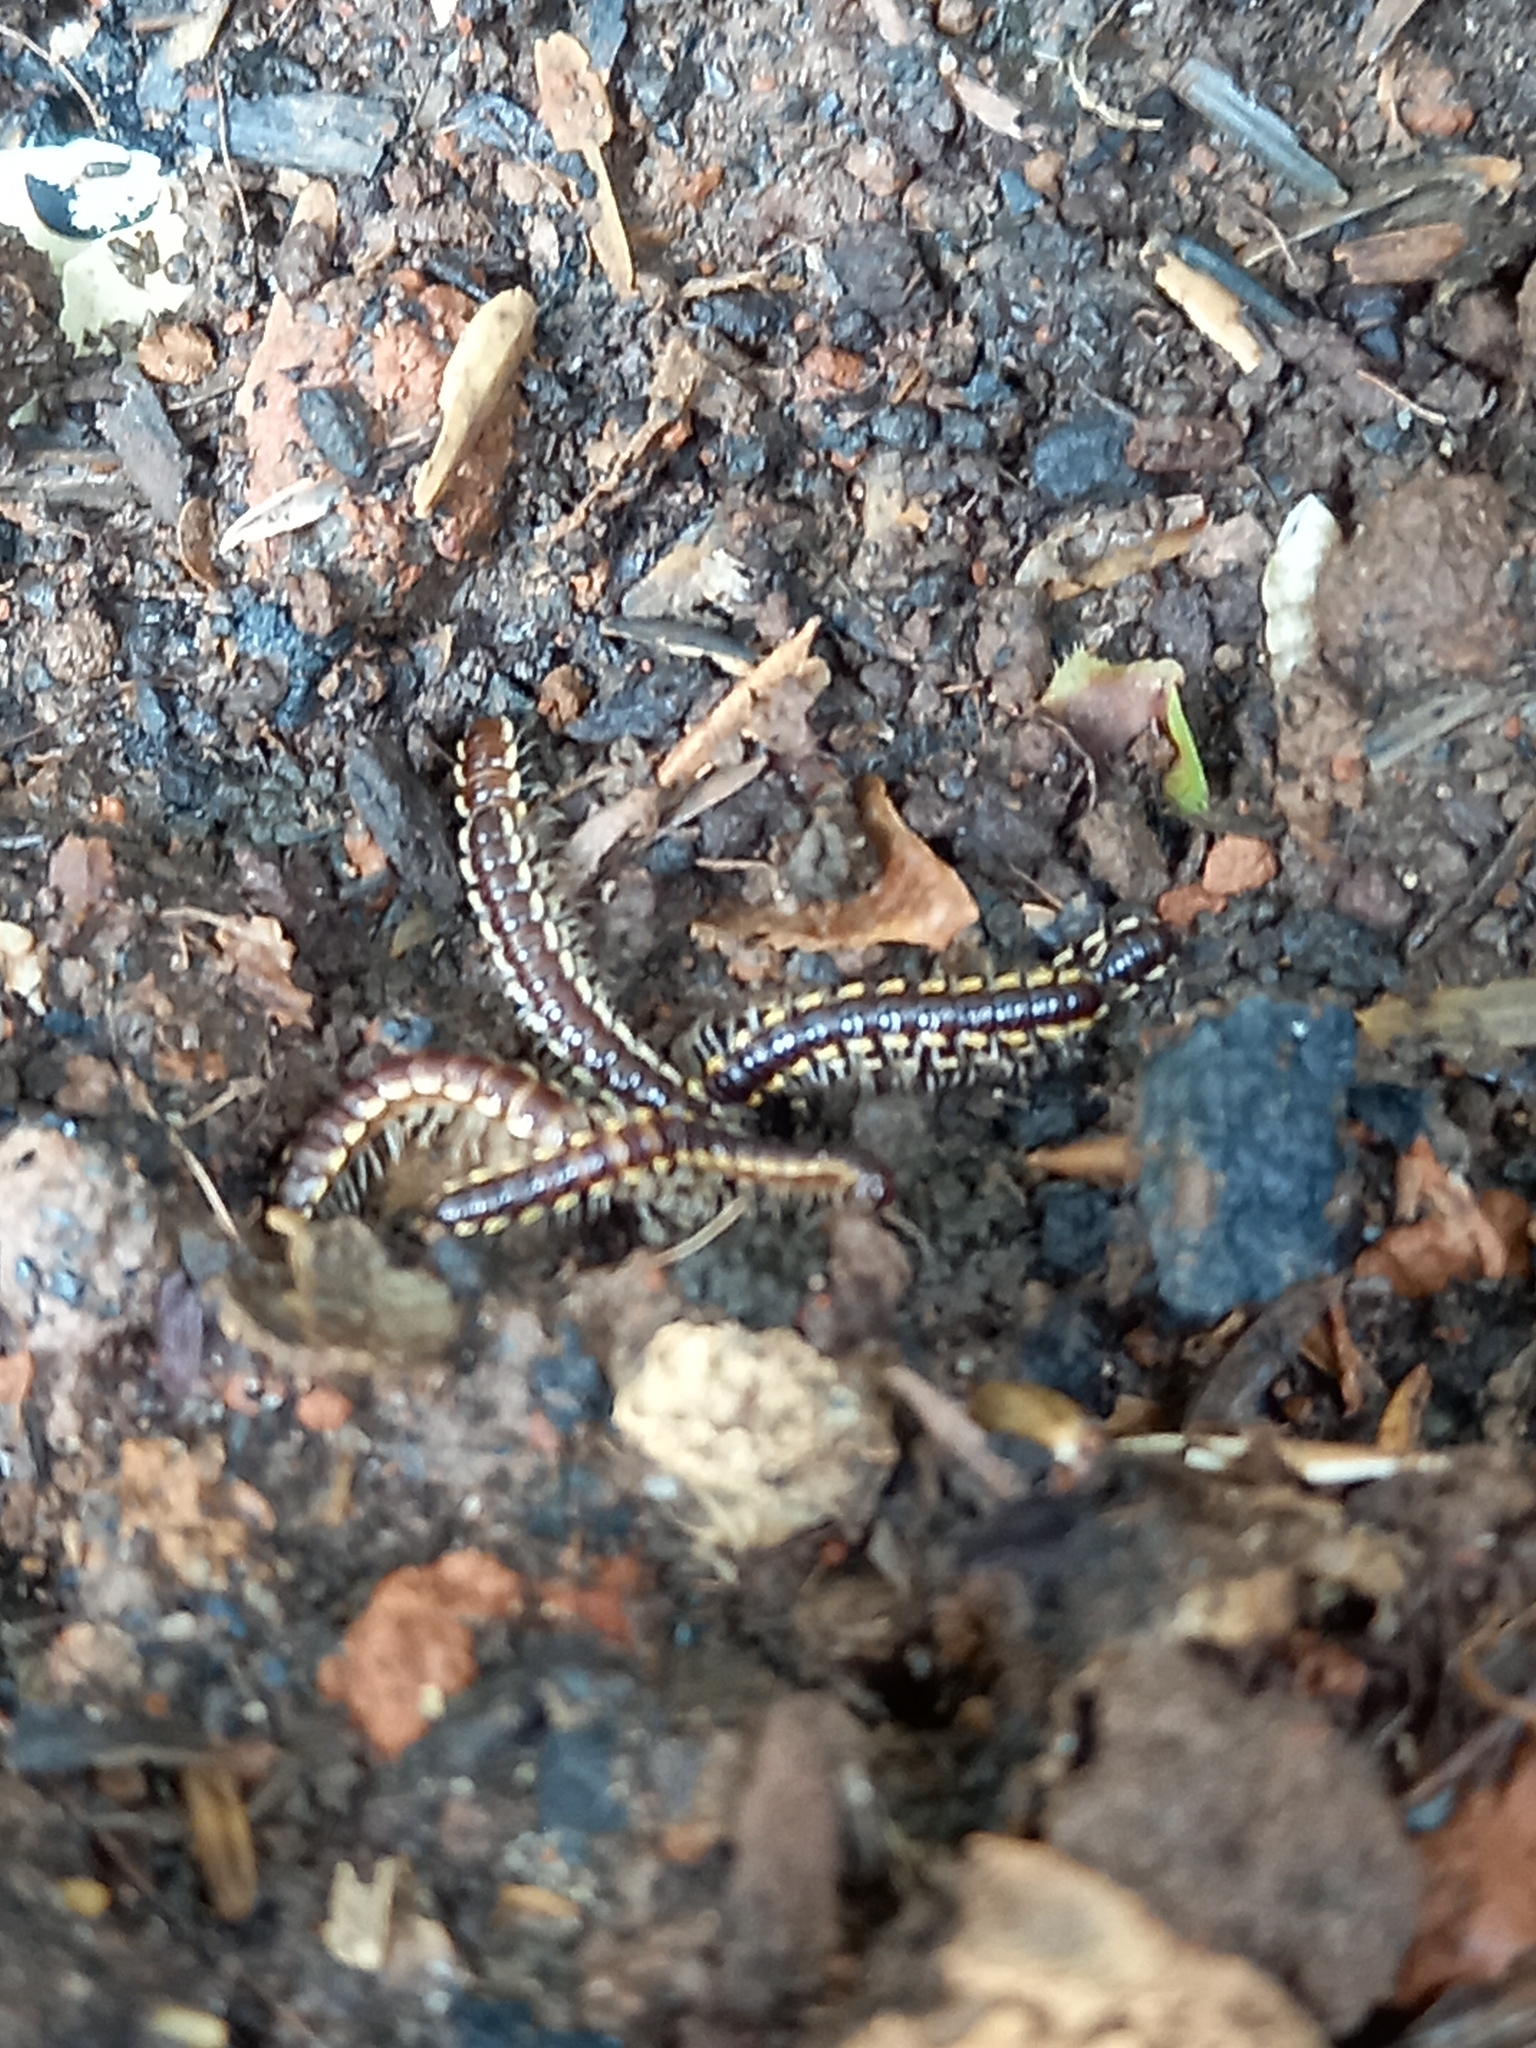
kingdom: Animalia
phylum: Arthropoda
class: Diplopoda
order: Polydesmida
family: Paradoxosomatidae
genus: Orthomorpha
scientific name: Orthomorpha coarctata
